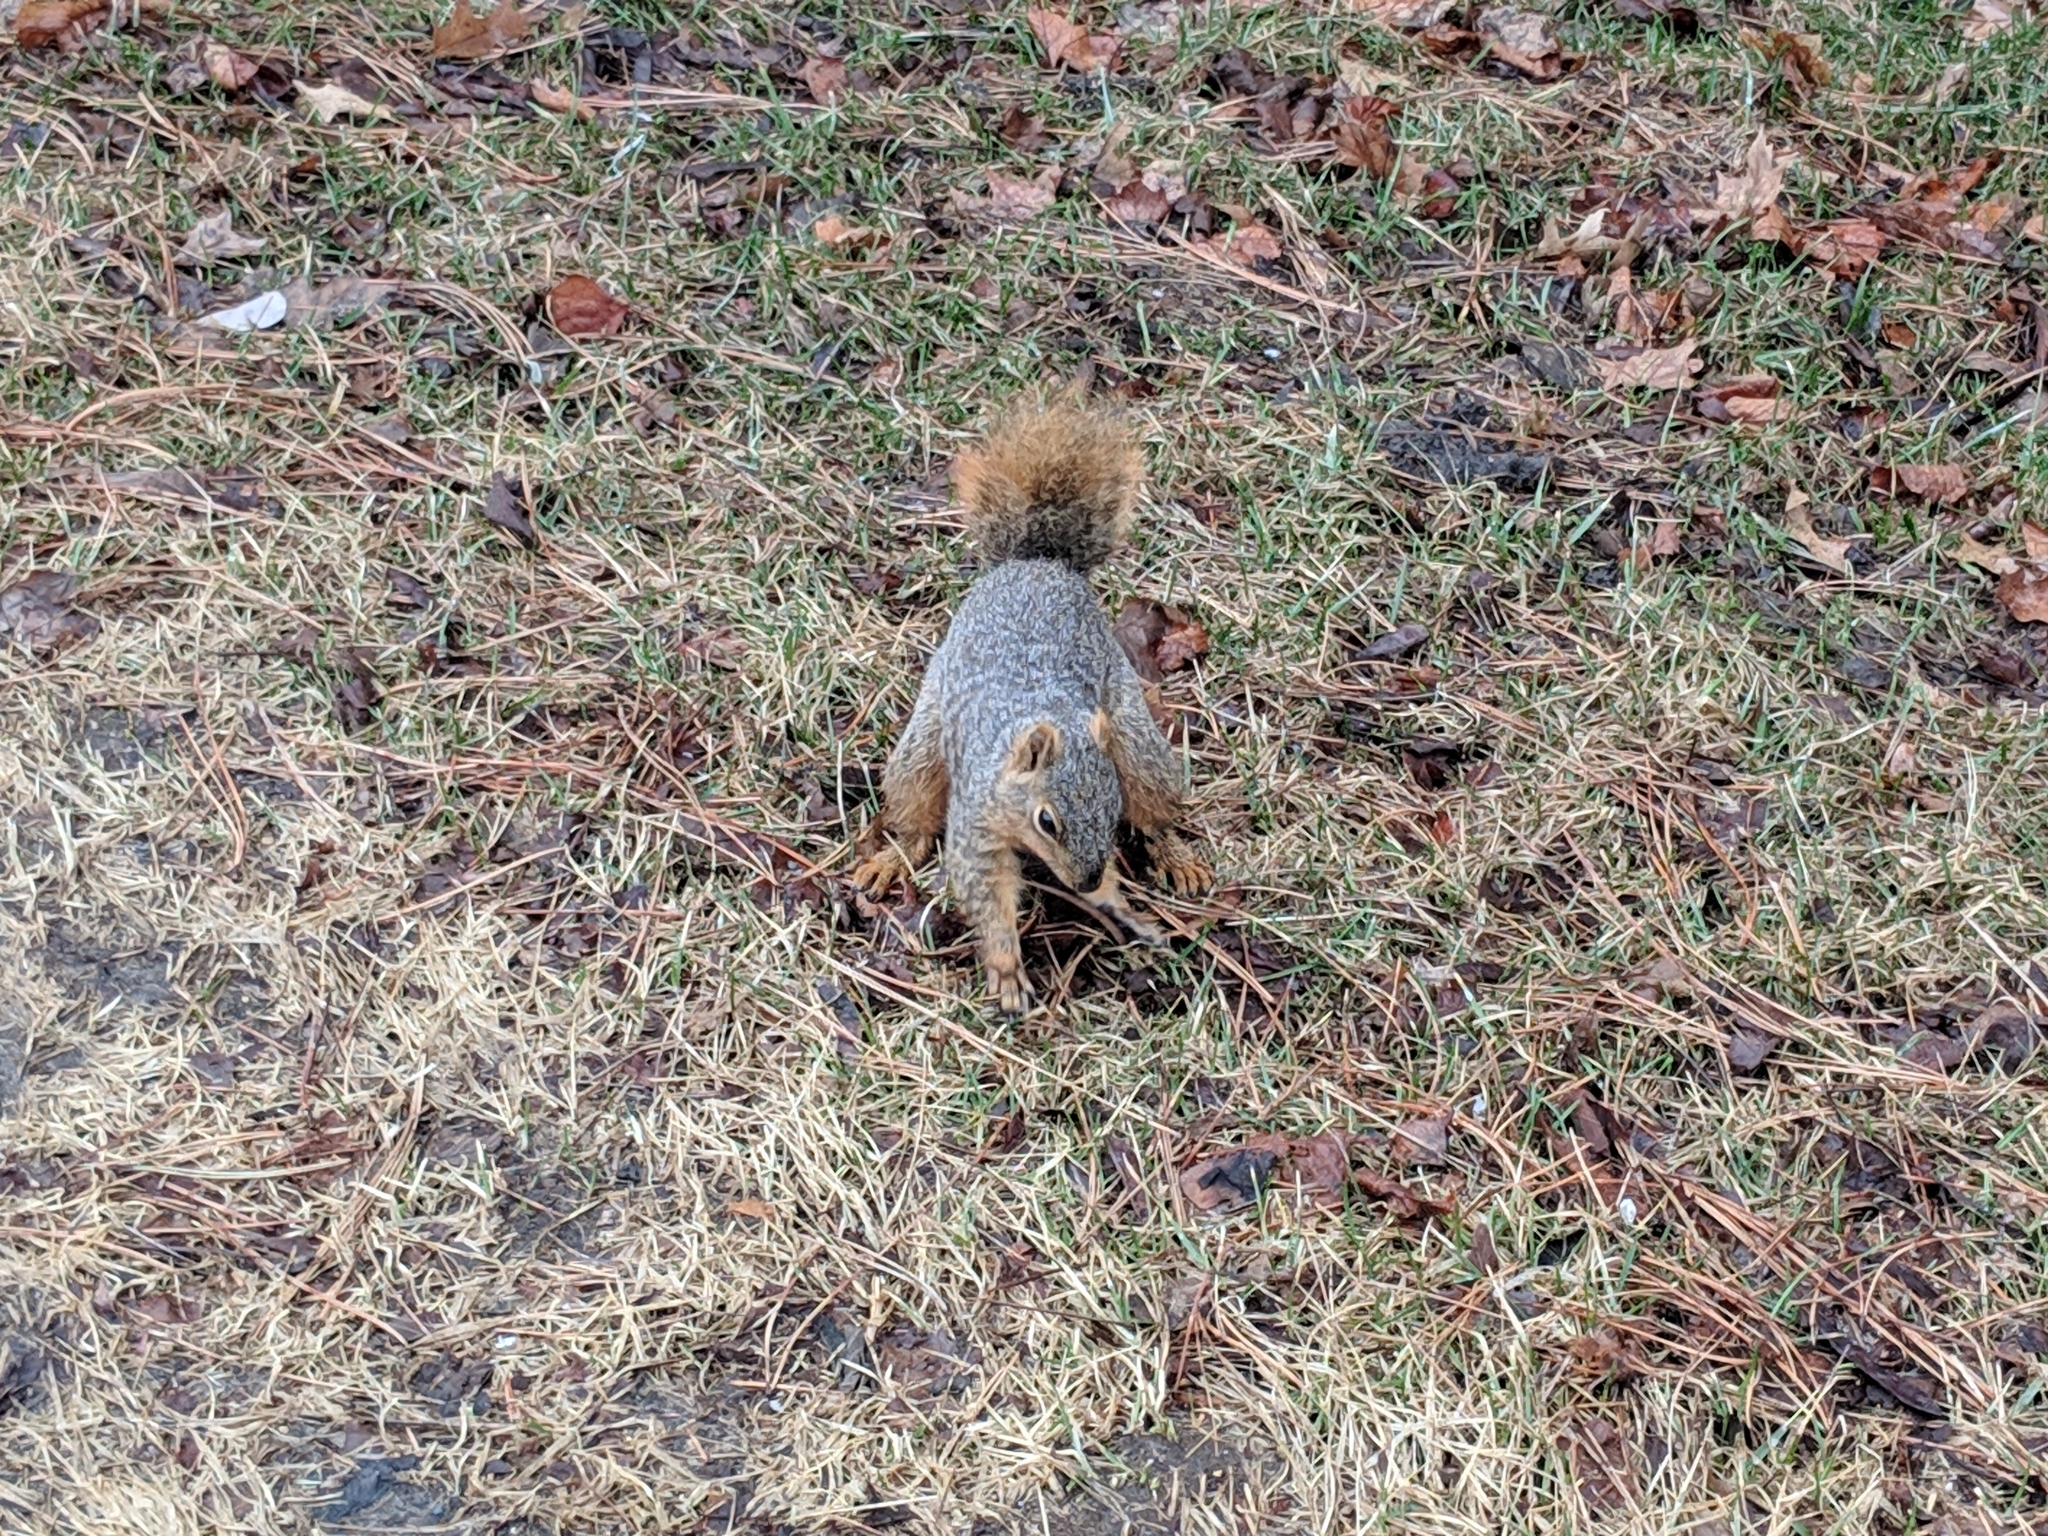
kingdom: Animalia
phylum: Chordata
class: Mammalia
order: Rodentia
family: Sciuridae
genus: Sciurus
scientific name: Sciurus niger
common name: Fox squirrel
